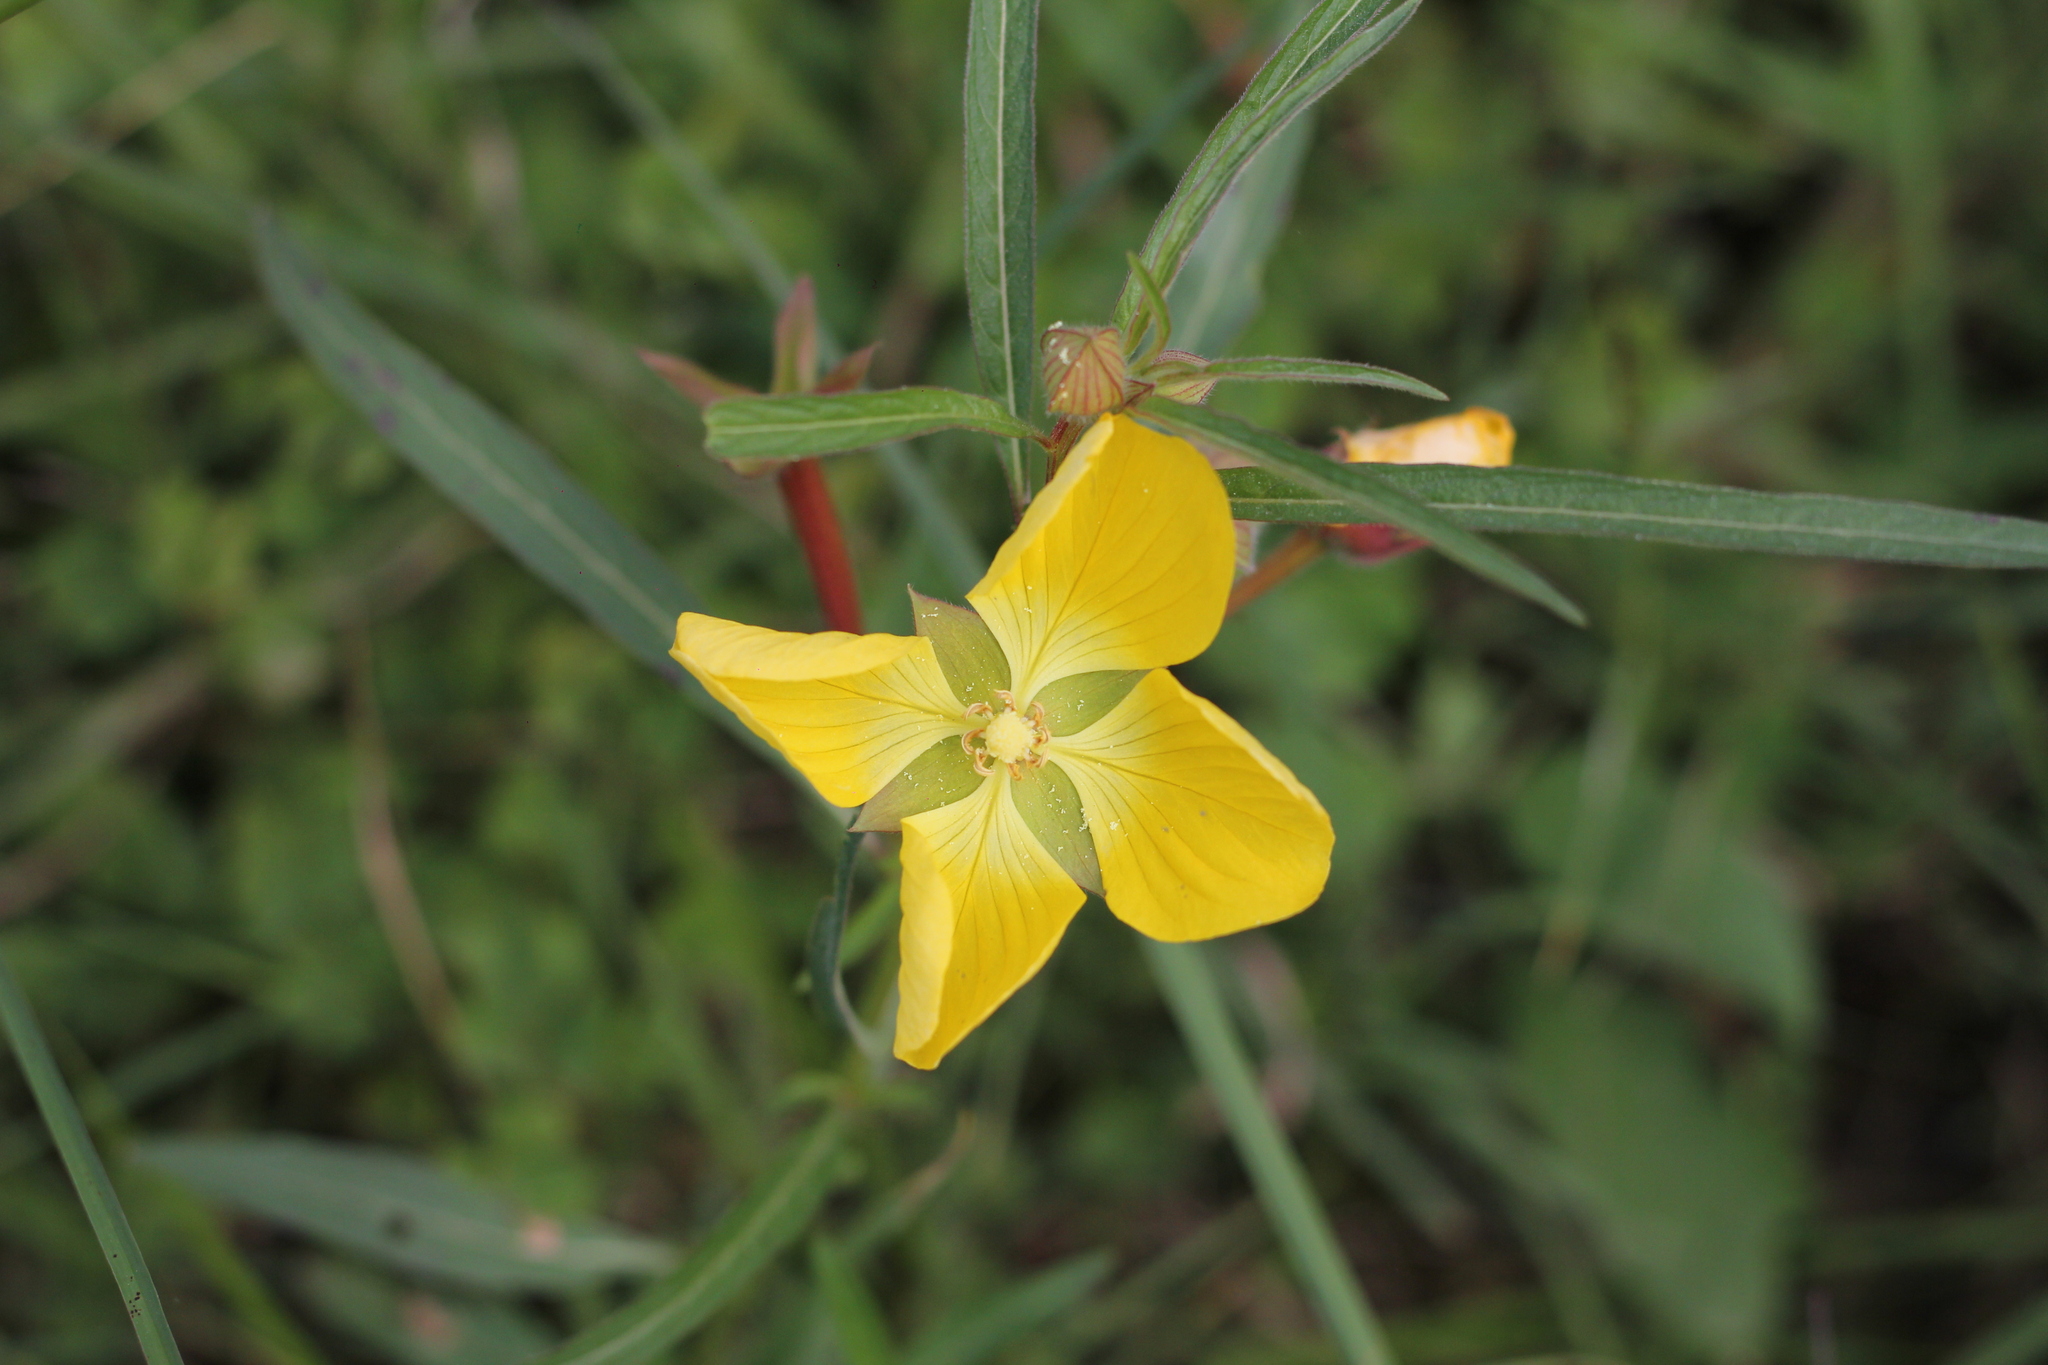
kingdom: Plantae
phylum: Tracheophyta
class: Magnoliopsida
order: Myrtales
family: Onagraceae
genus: Ludwigia
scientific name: Ludwigia longifolia
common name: Longleaf primrose-willow
